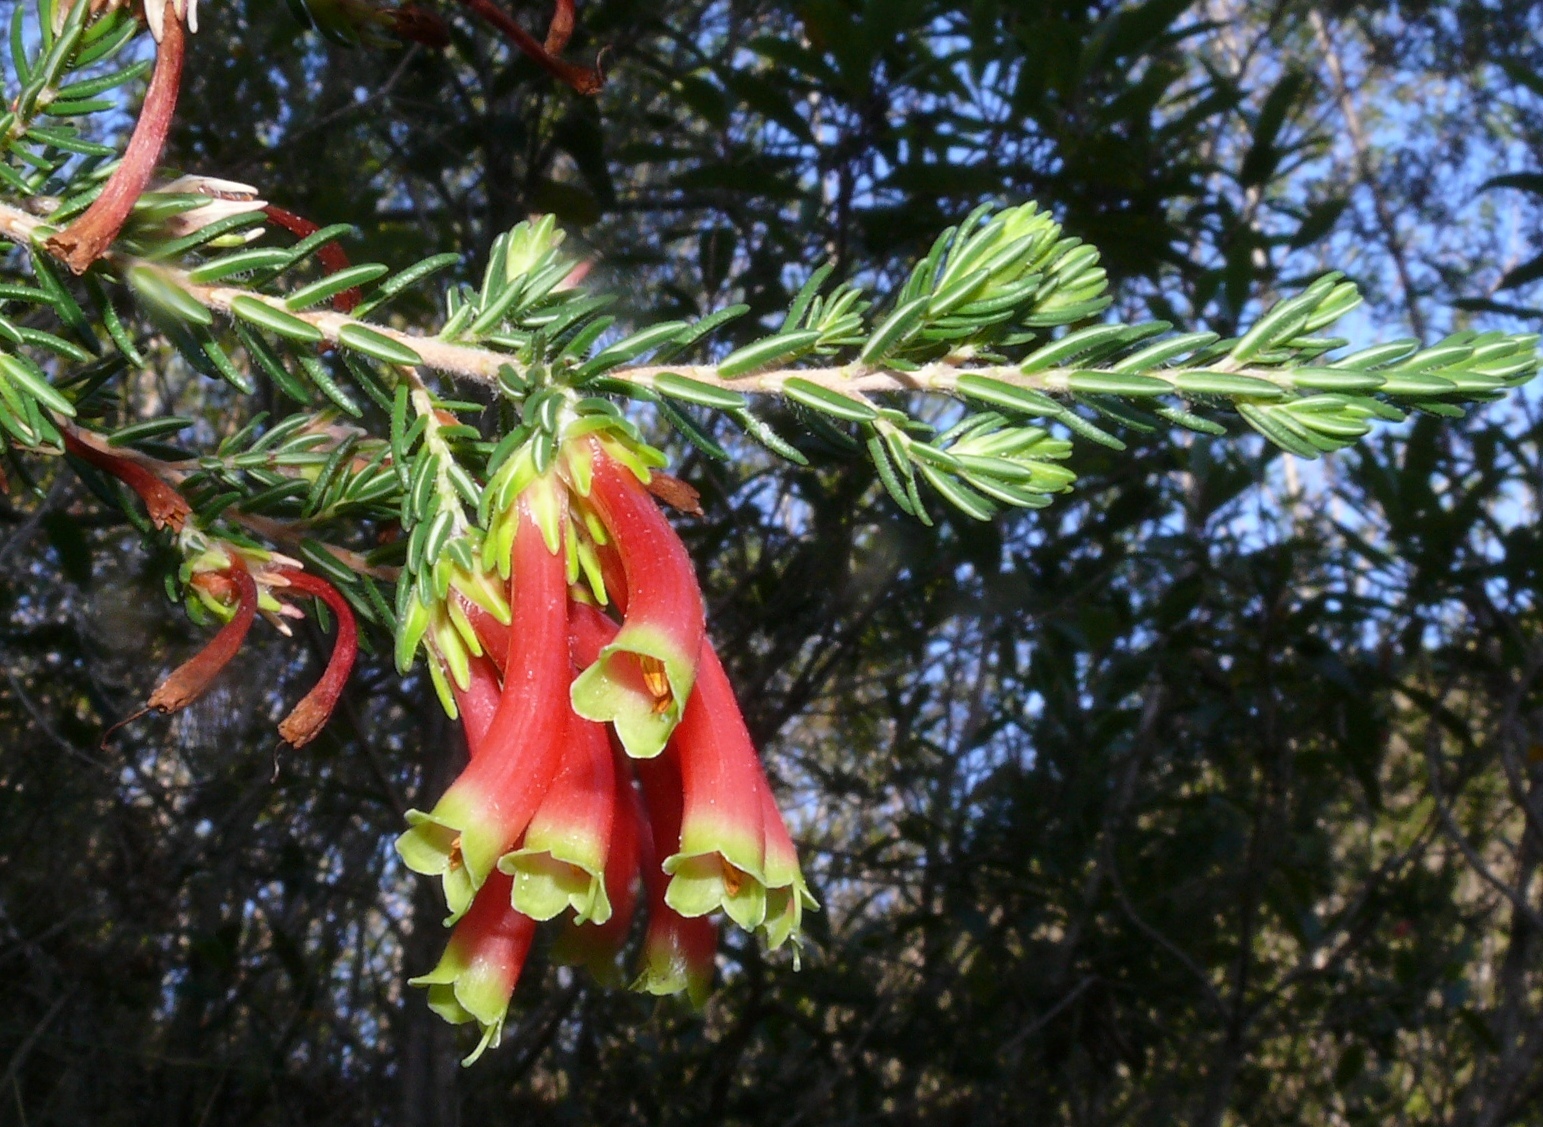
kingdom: Plantae
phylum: Tracheophyta
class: Magnoliopsida
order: Ericales
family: Ericaceae
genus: Erica
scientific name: Erica discolor
